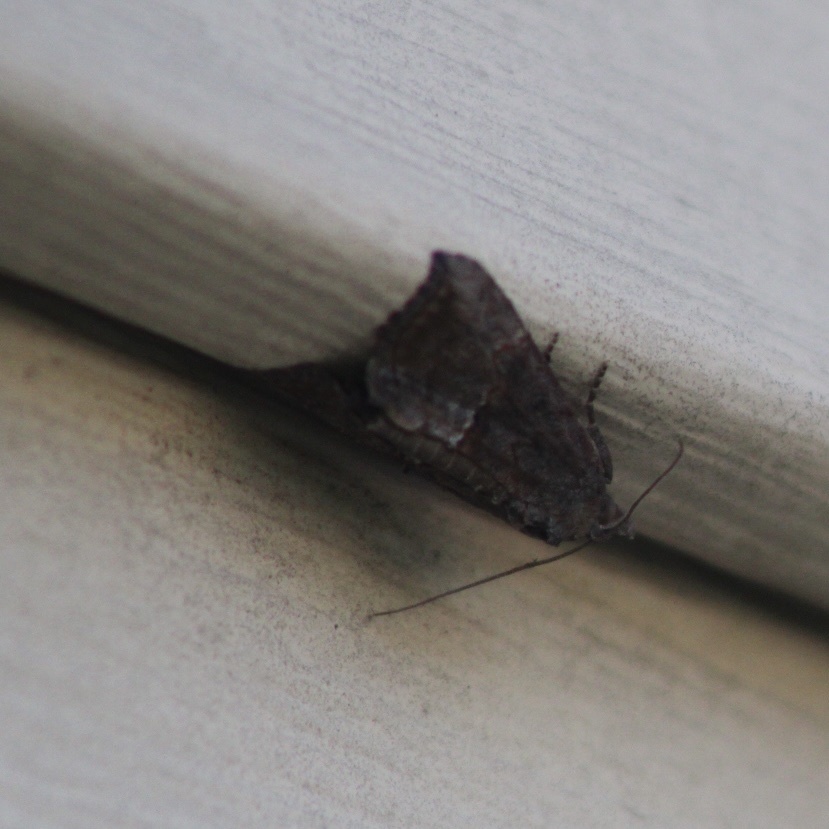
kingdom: Animalia
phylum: Arthropoda
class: Insecta
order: Lepidoptera
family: Erebidae
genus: Hypena
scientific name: Hypena scabra
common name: Green cloverworm
